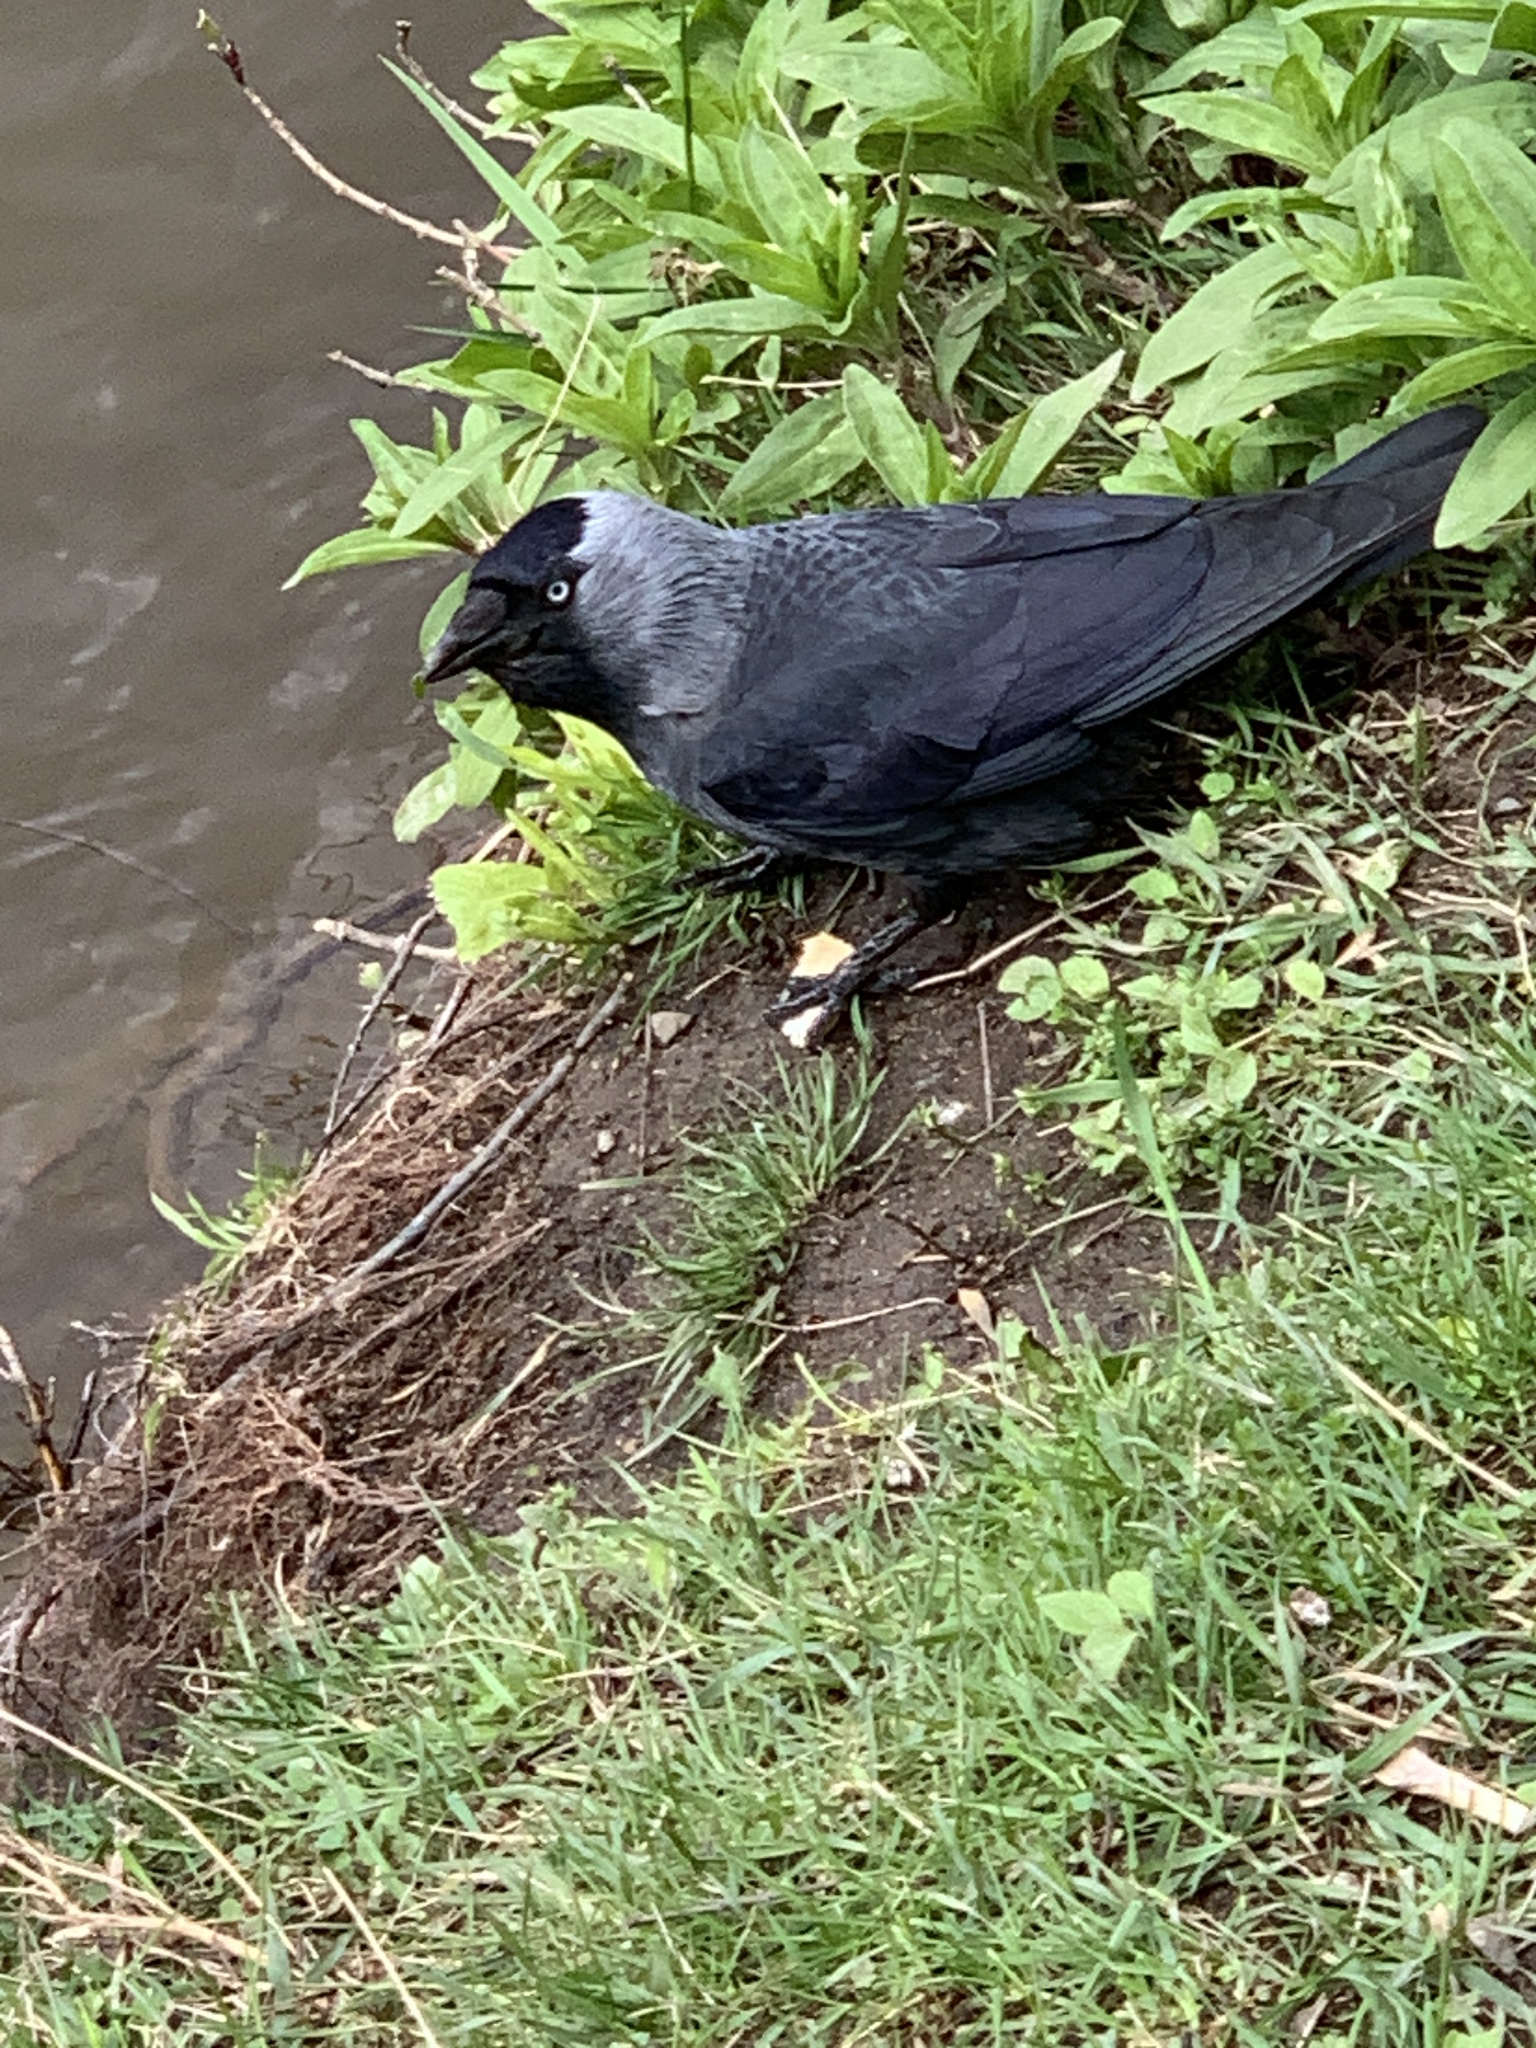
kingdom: Animalia
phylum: Chordata
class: Aves
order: Passeriformes
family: Corvidae
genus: Coloeus
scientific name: Coloeus monedula
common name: Western jackdaw
